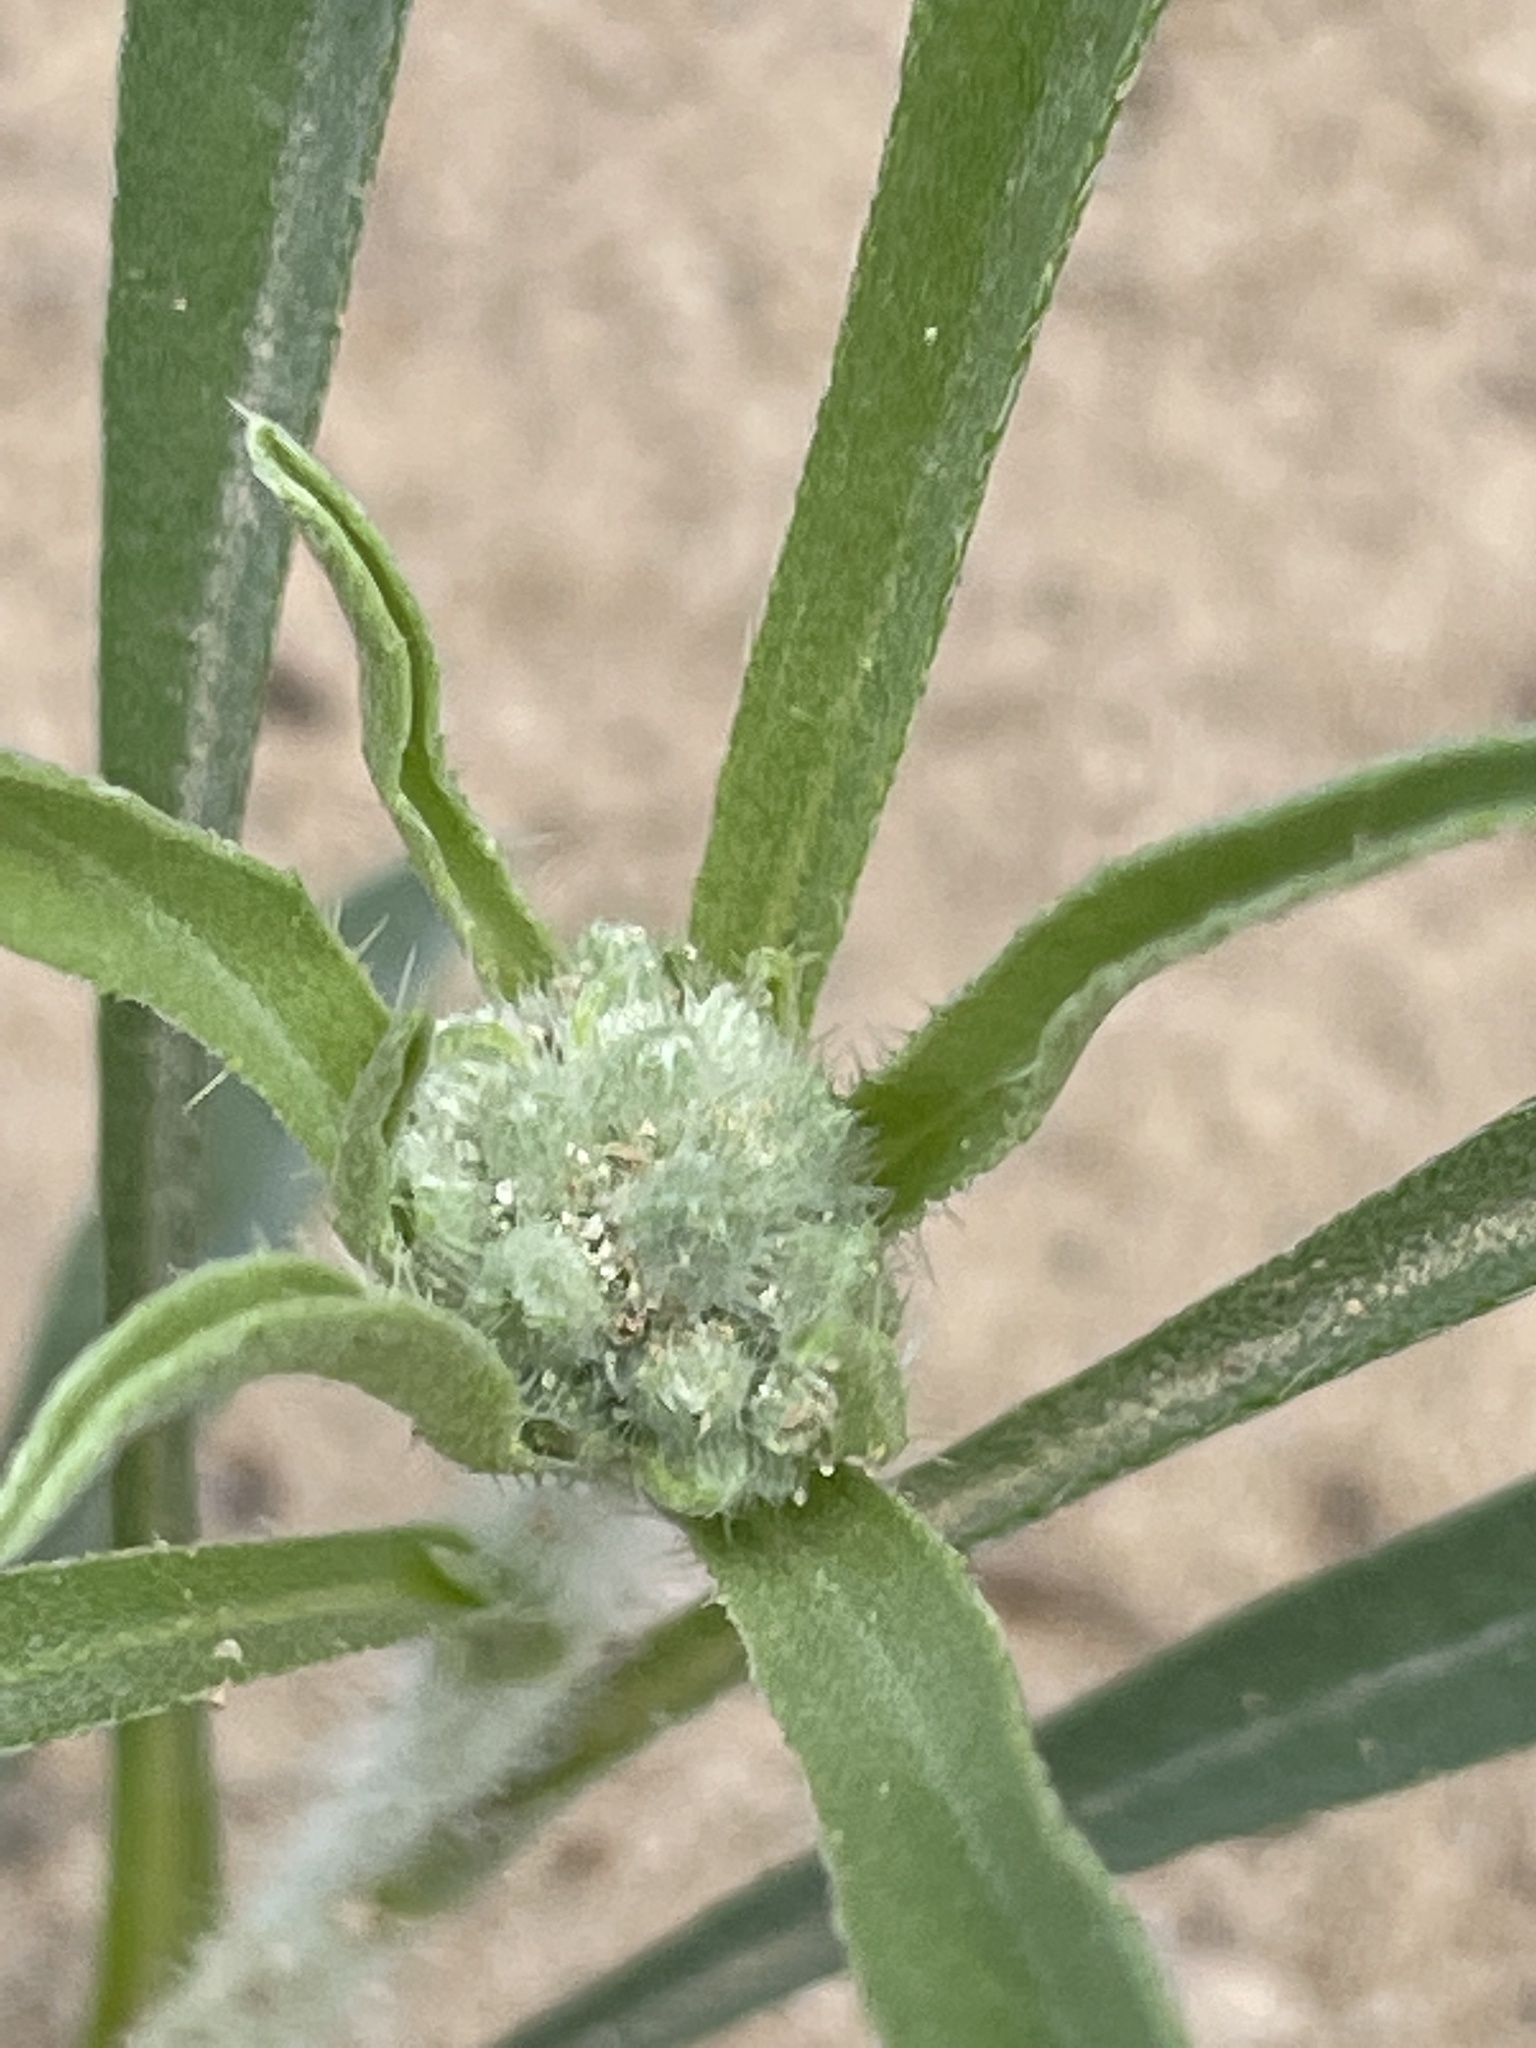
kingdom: Plantae
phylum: Tracheophyta
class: Magnoliopsida
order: Boraginales
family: Boraginaceae
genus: Oreocarya
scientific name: Oreocarya suffruticosa
